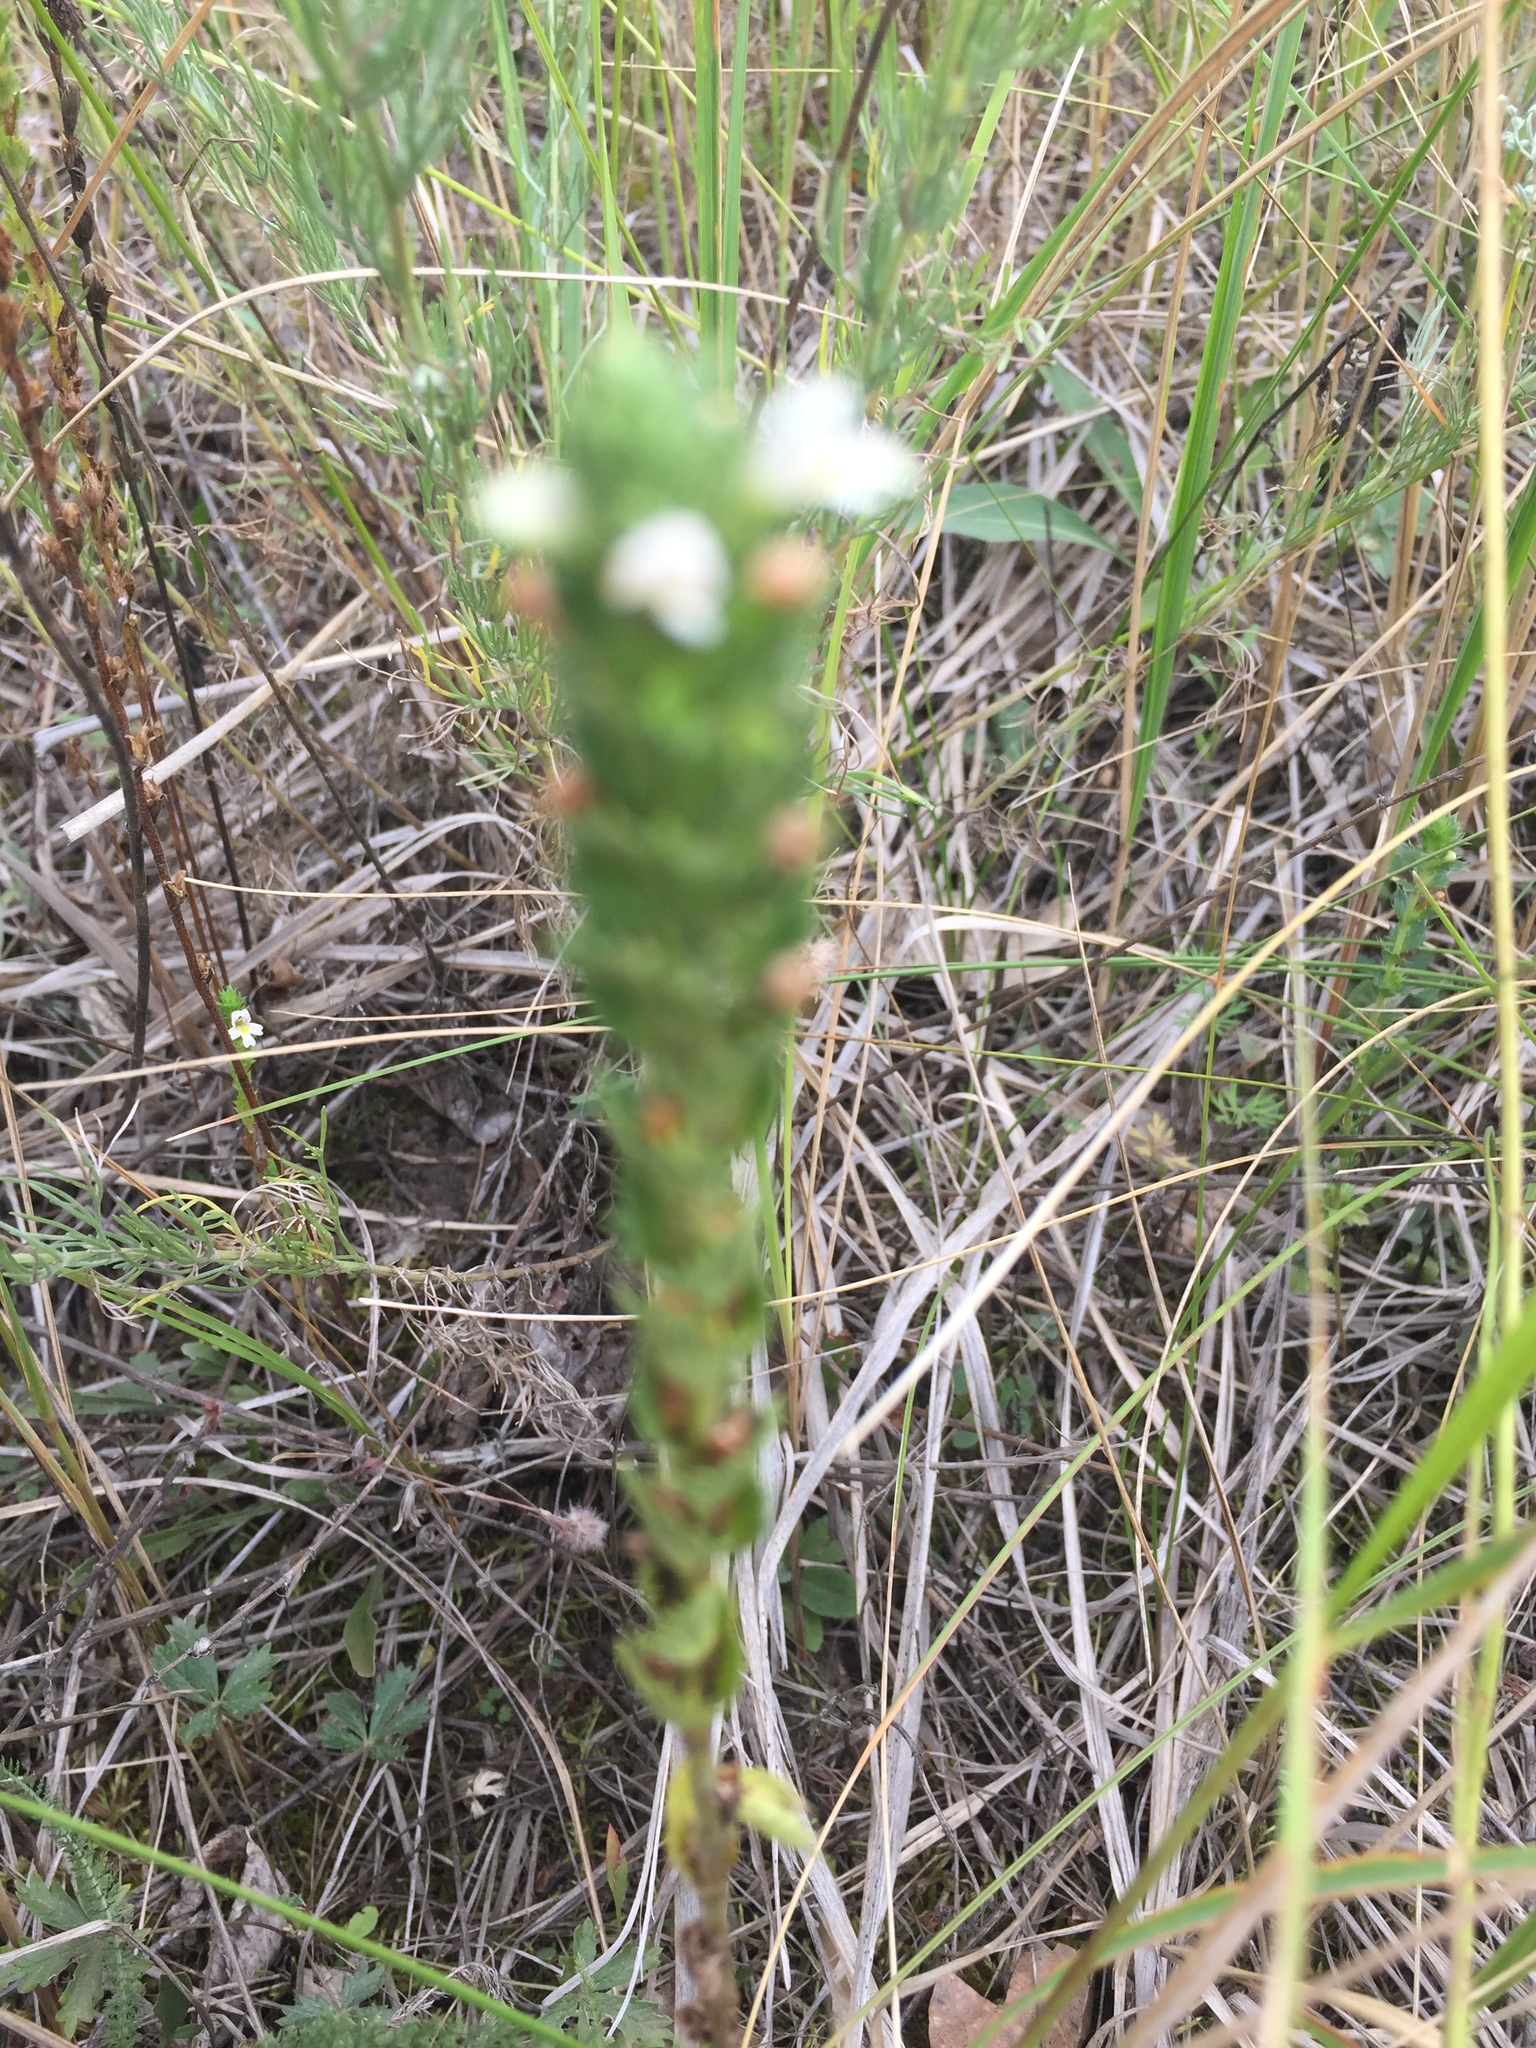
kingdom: Plantae
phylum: Tracheophyta
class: Magnoliopsida
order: Lamiales
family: Orobanchaceae
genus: Euphrasia
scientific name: Euphrasia stricta
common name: Drug eyebright
